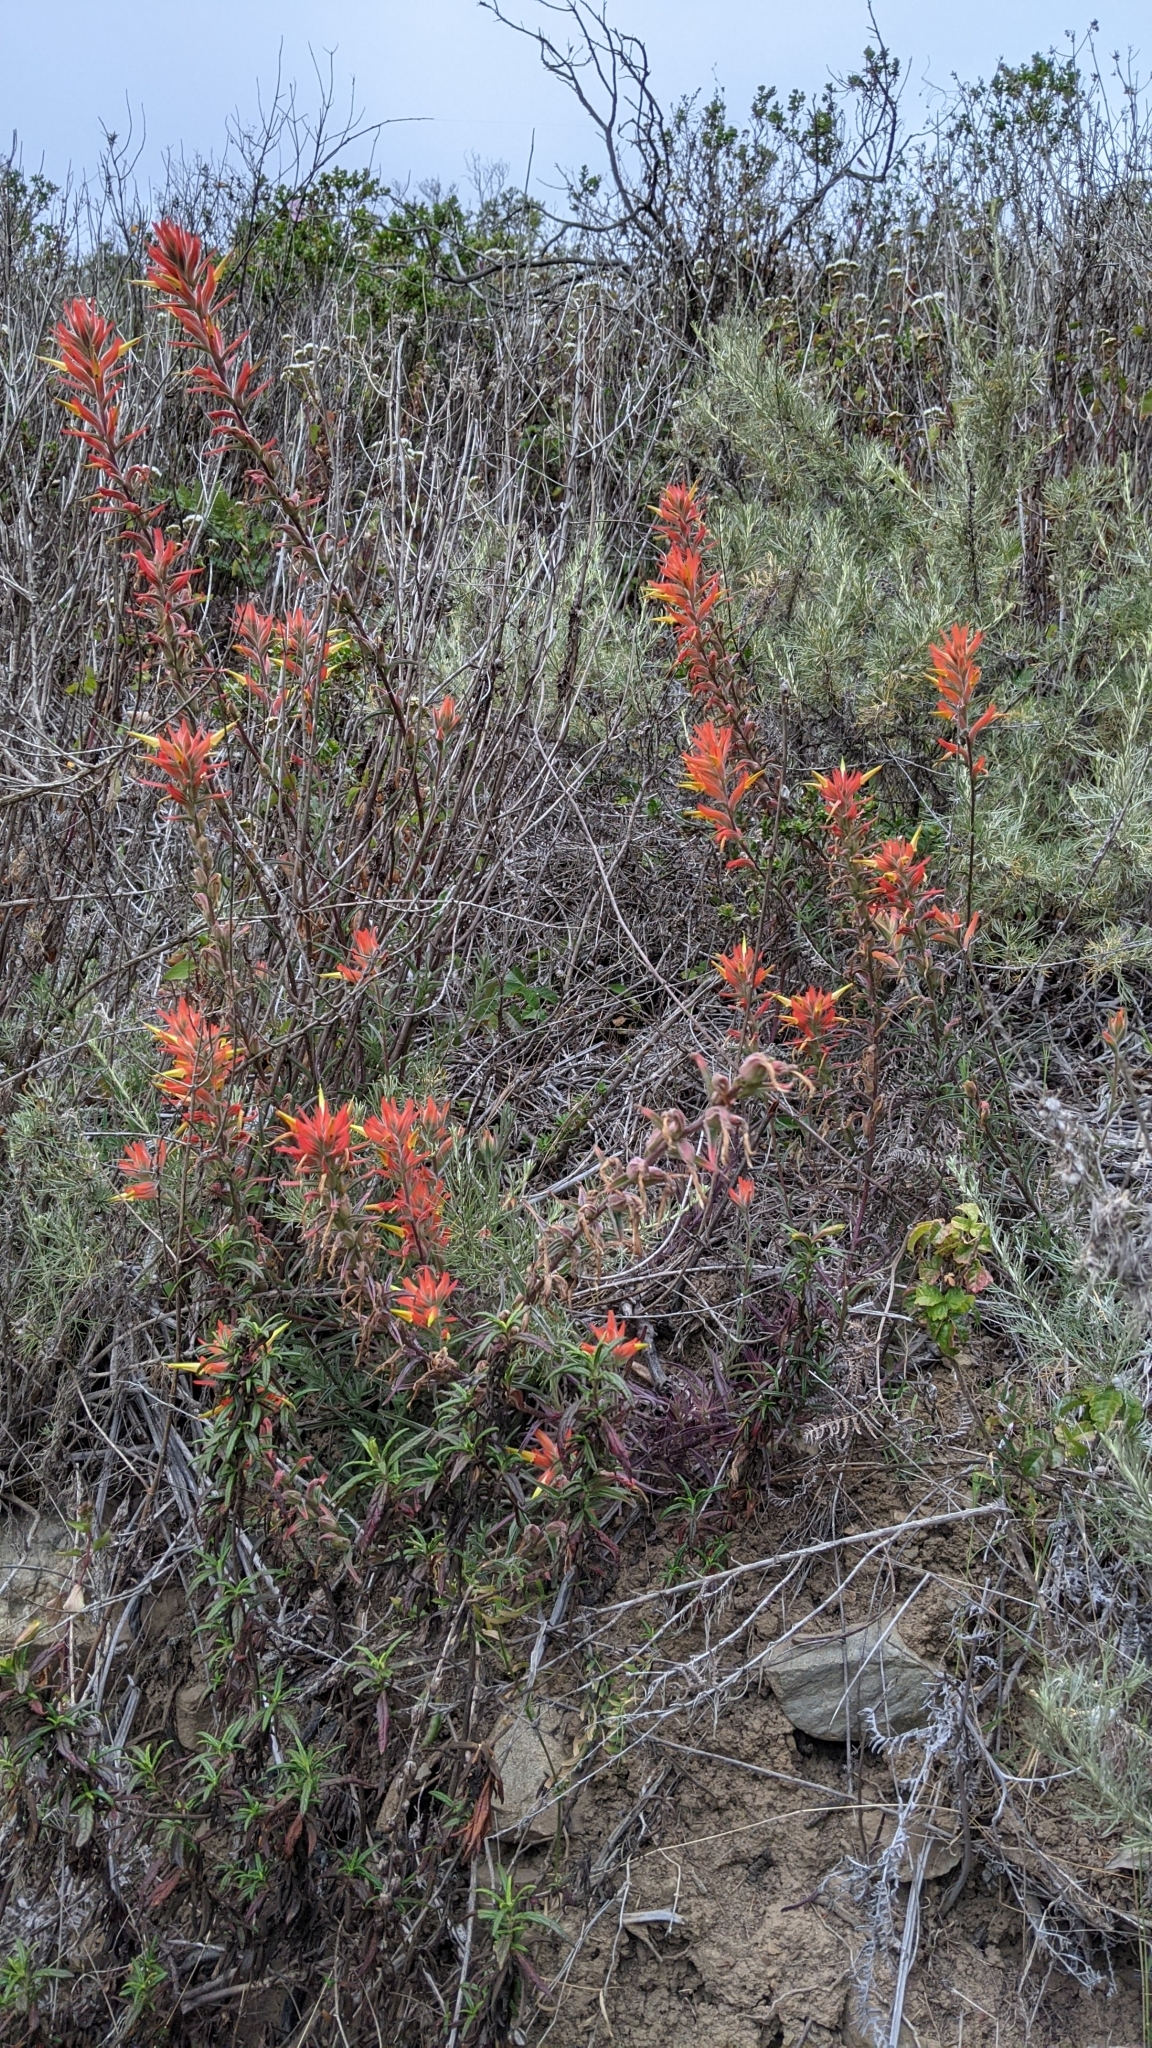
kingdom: Plantae
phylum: Tracheophyta
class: Magnoliopsida
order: Lamiales
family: Orobanchaceae
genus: Castilleja
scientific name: Castilleja subinclusa
